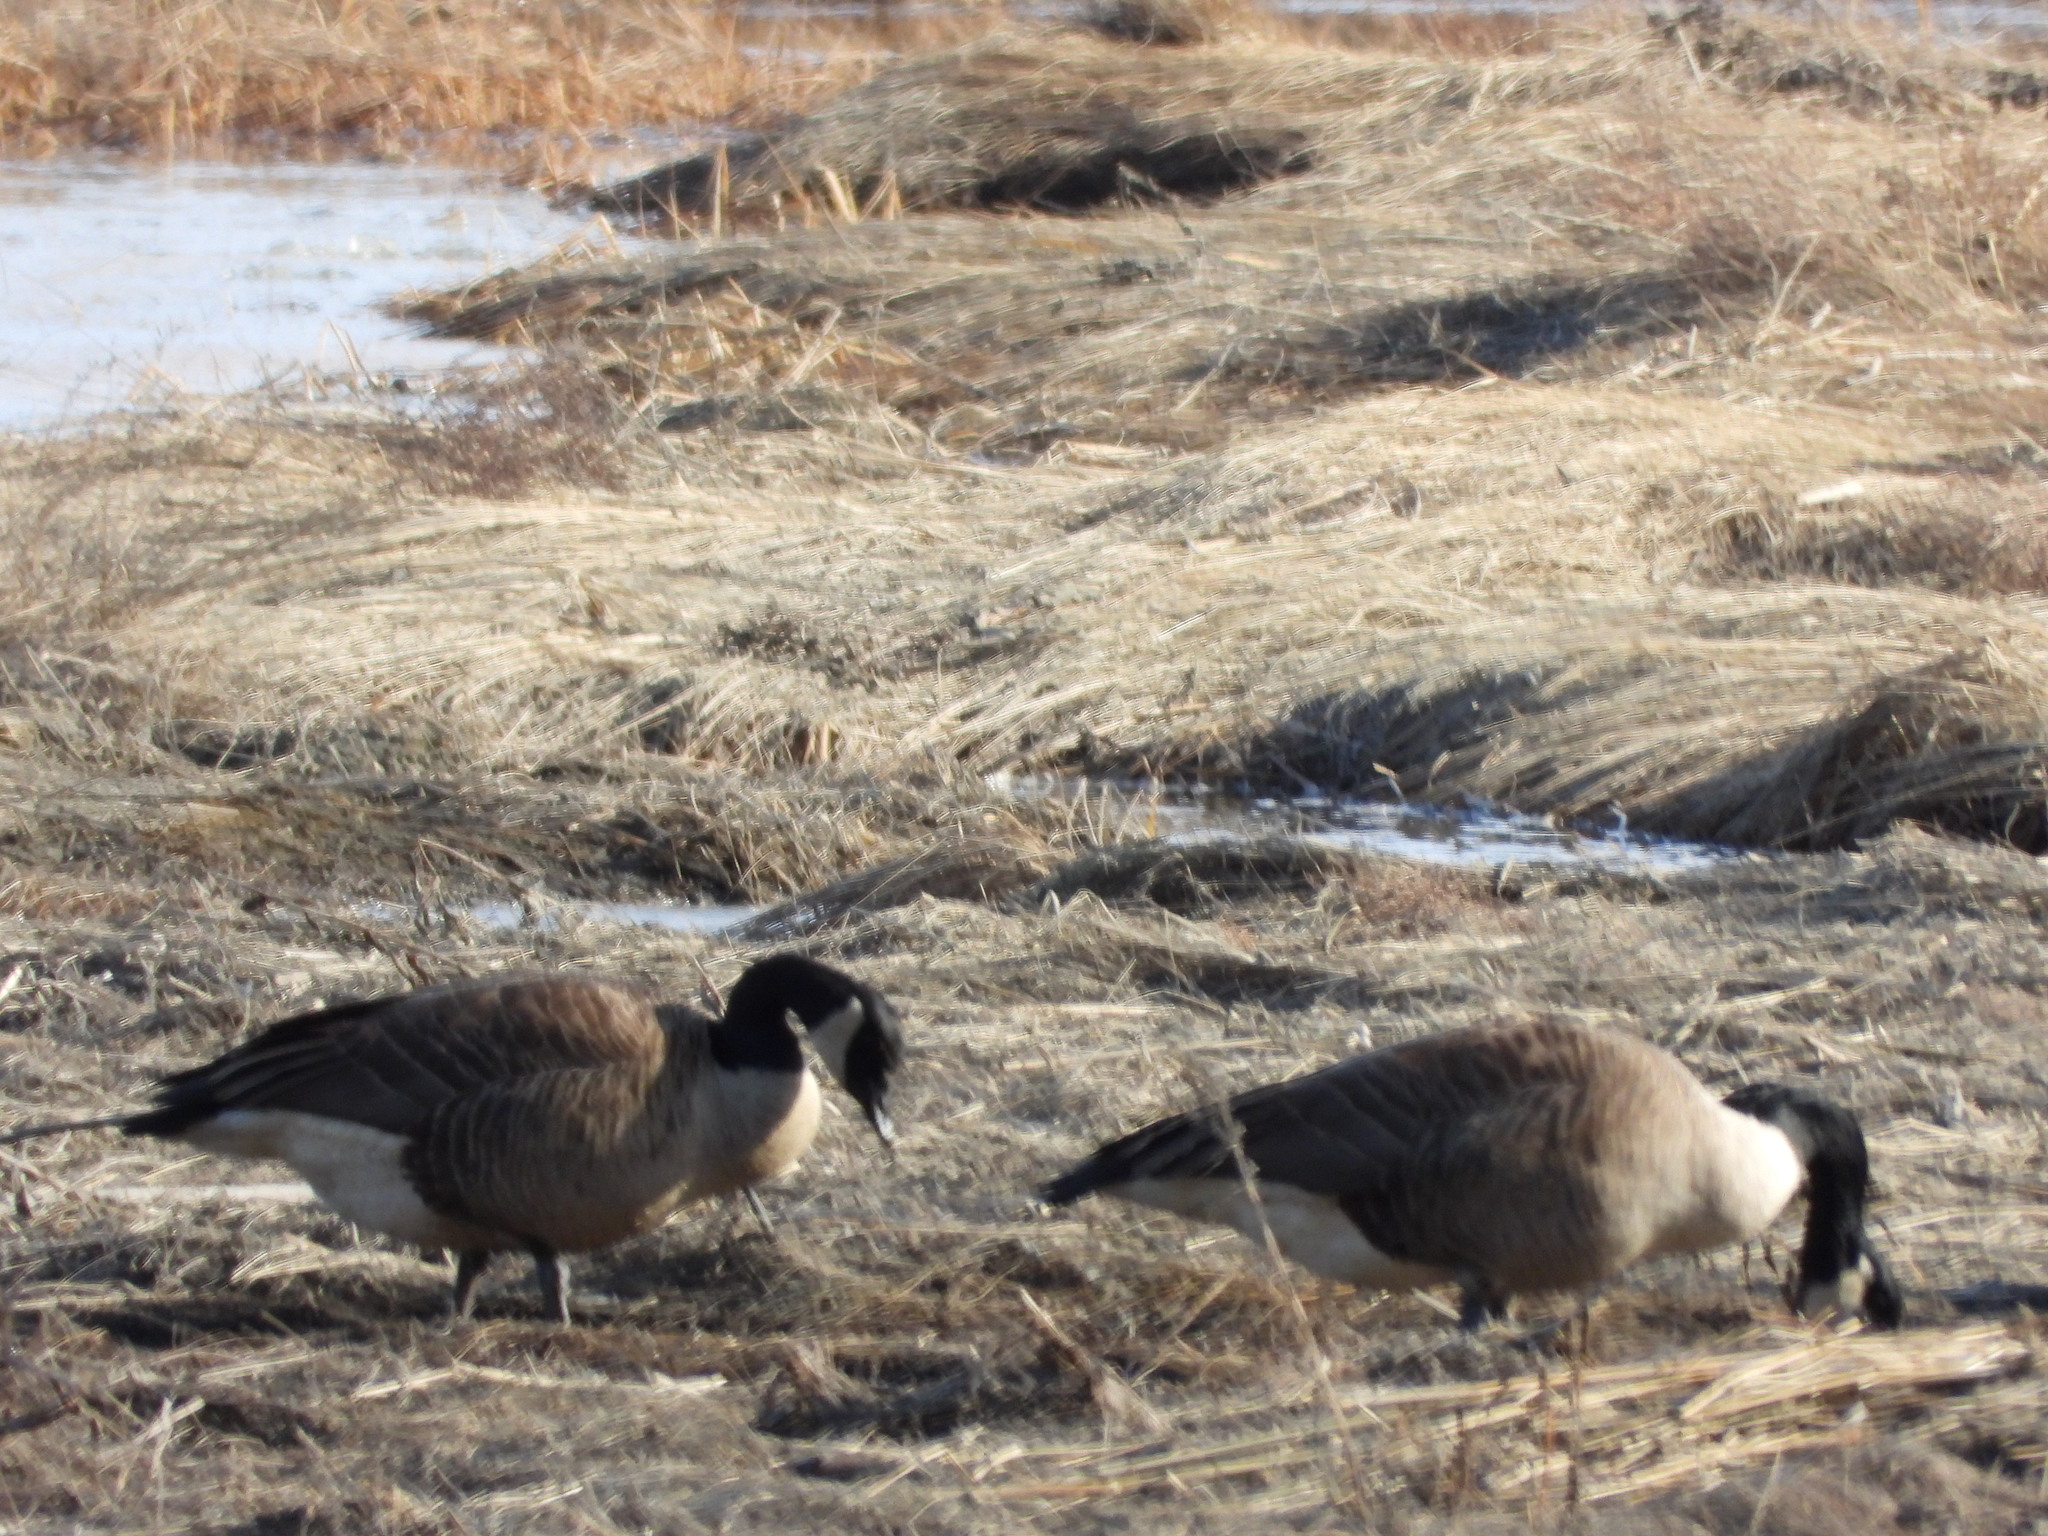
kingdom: Animalia
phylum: Chordata
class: Aves
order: Anseriformes
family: Anatidae
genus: Branta
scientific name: Branta canadensis
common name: Canada goose
